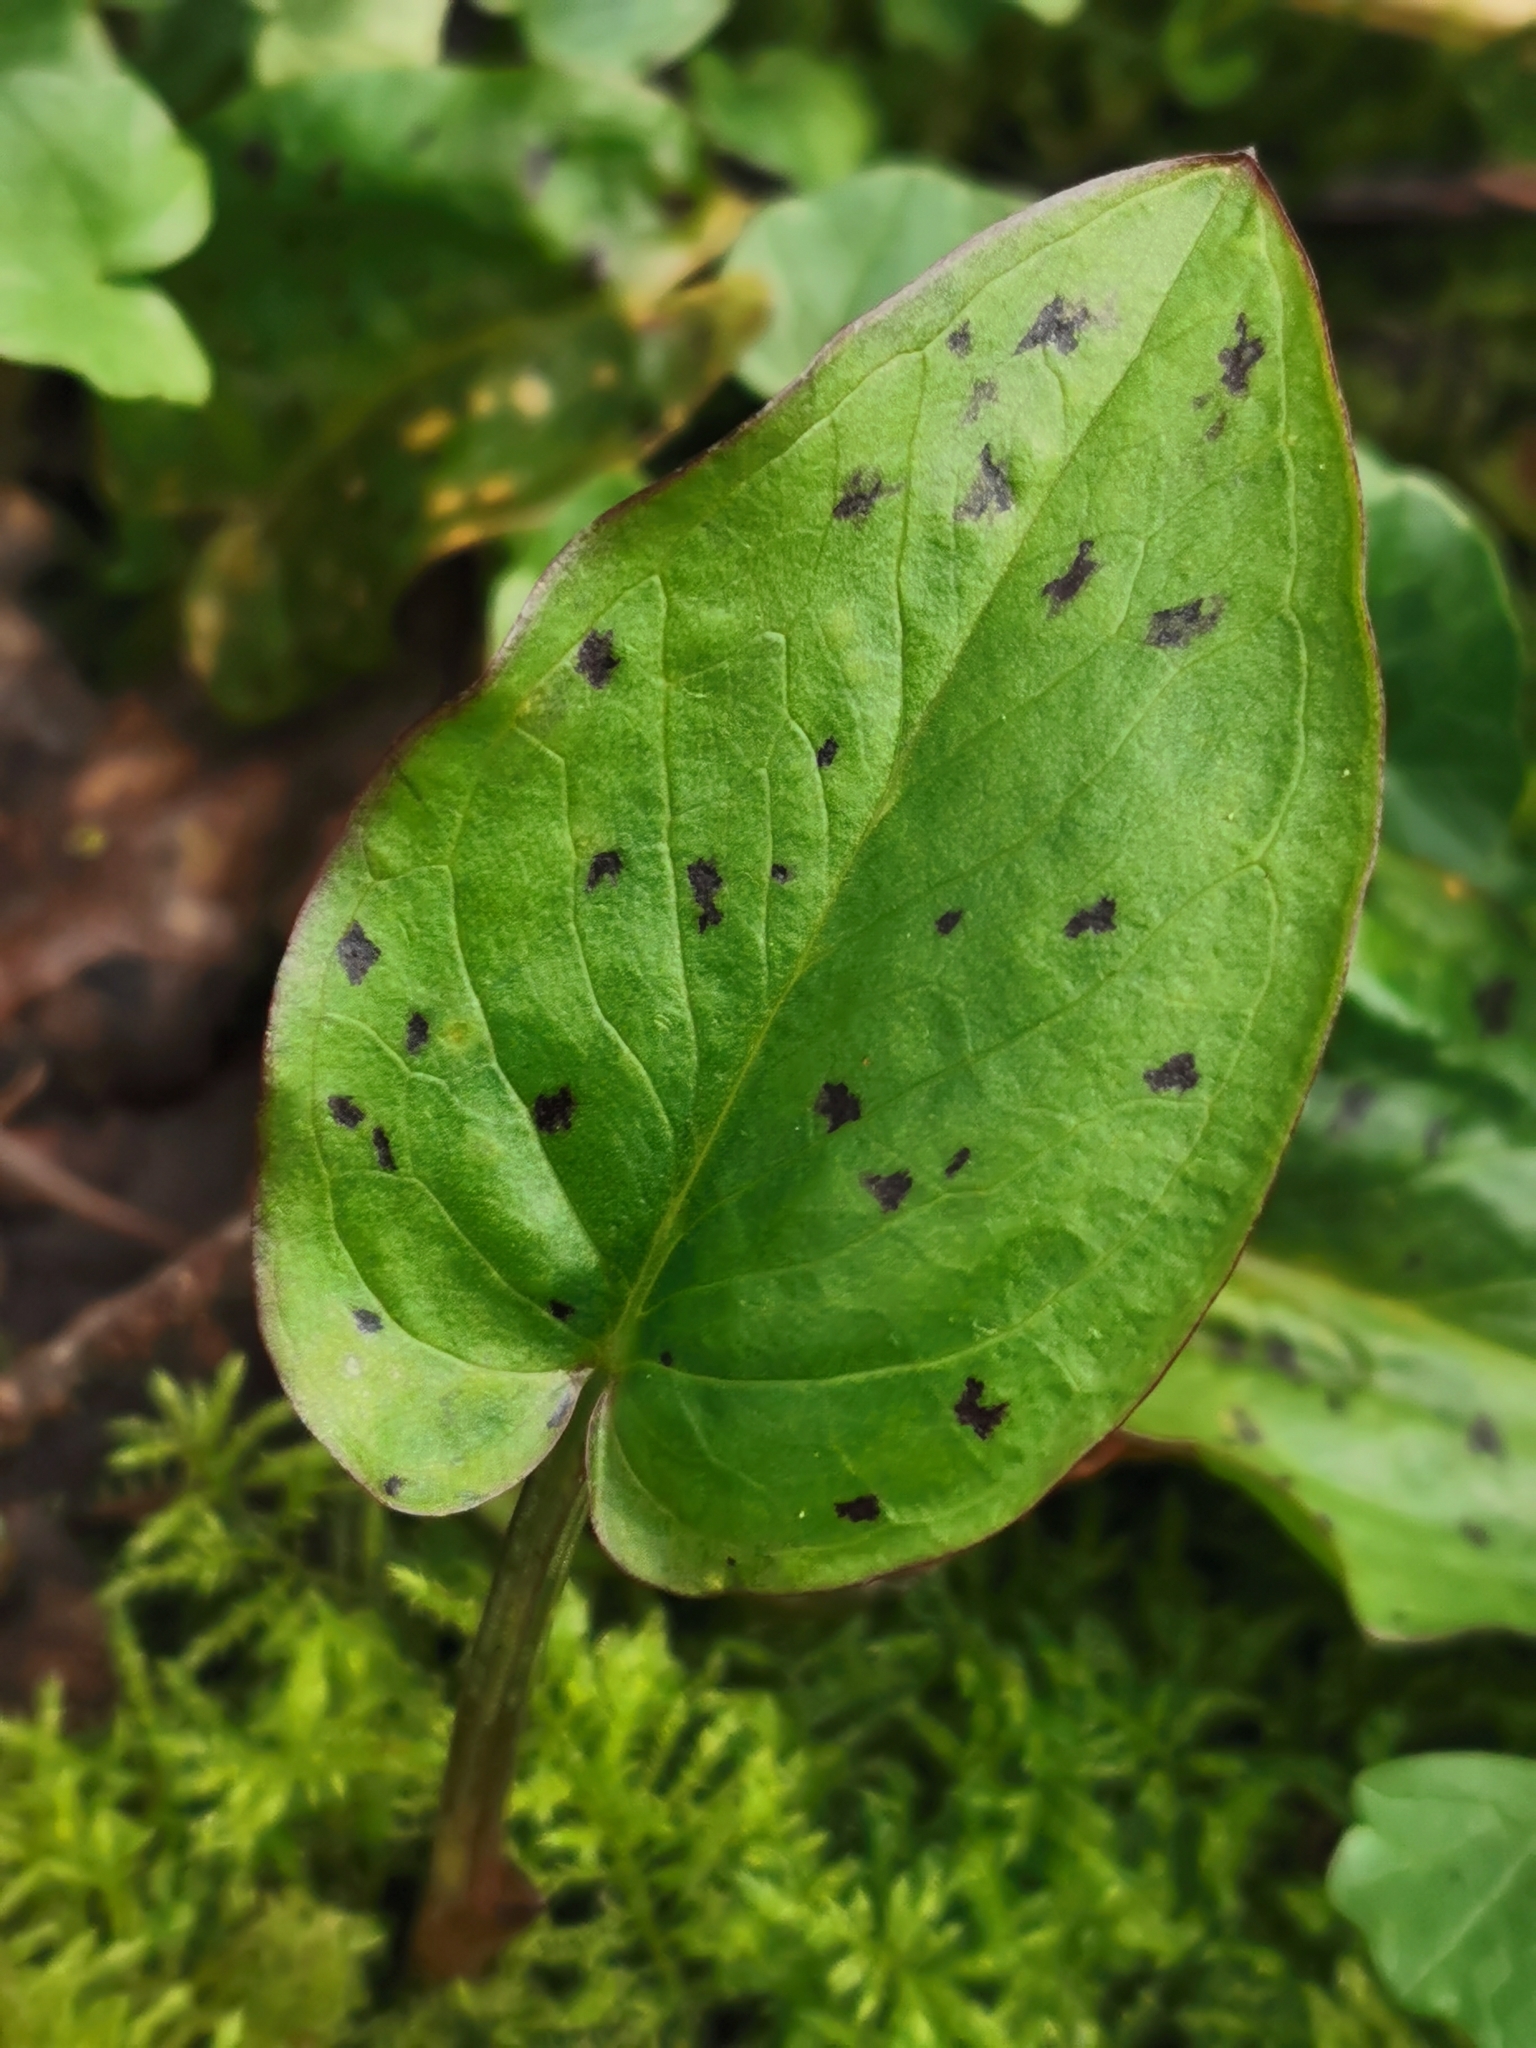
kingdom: Plantae
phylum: Tracheophyta
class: Liliopsida
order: Alismatales
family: Araceae
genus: Arum
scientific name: Arum maculatum
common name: Lords-and-ladies
